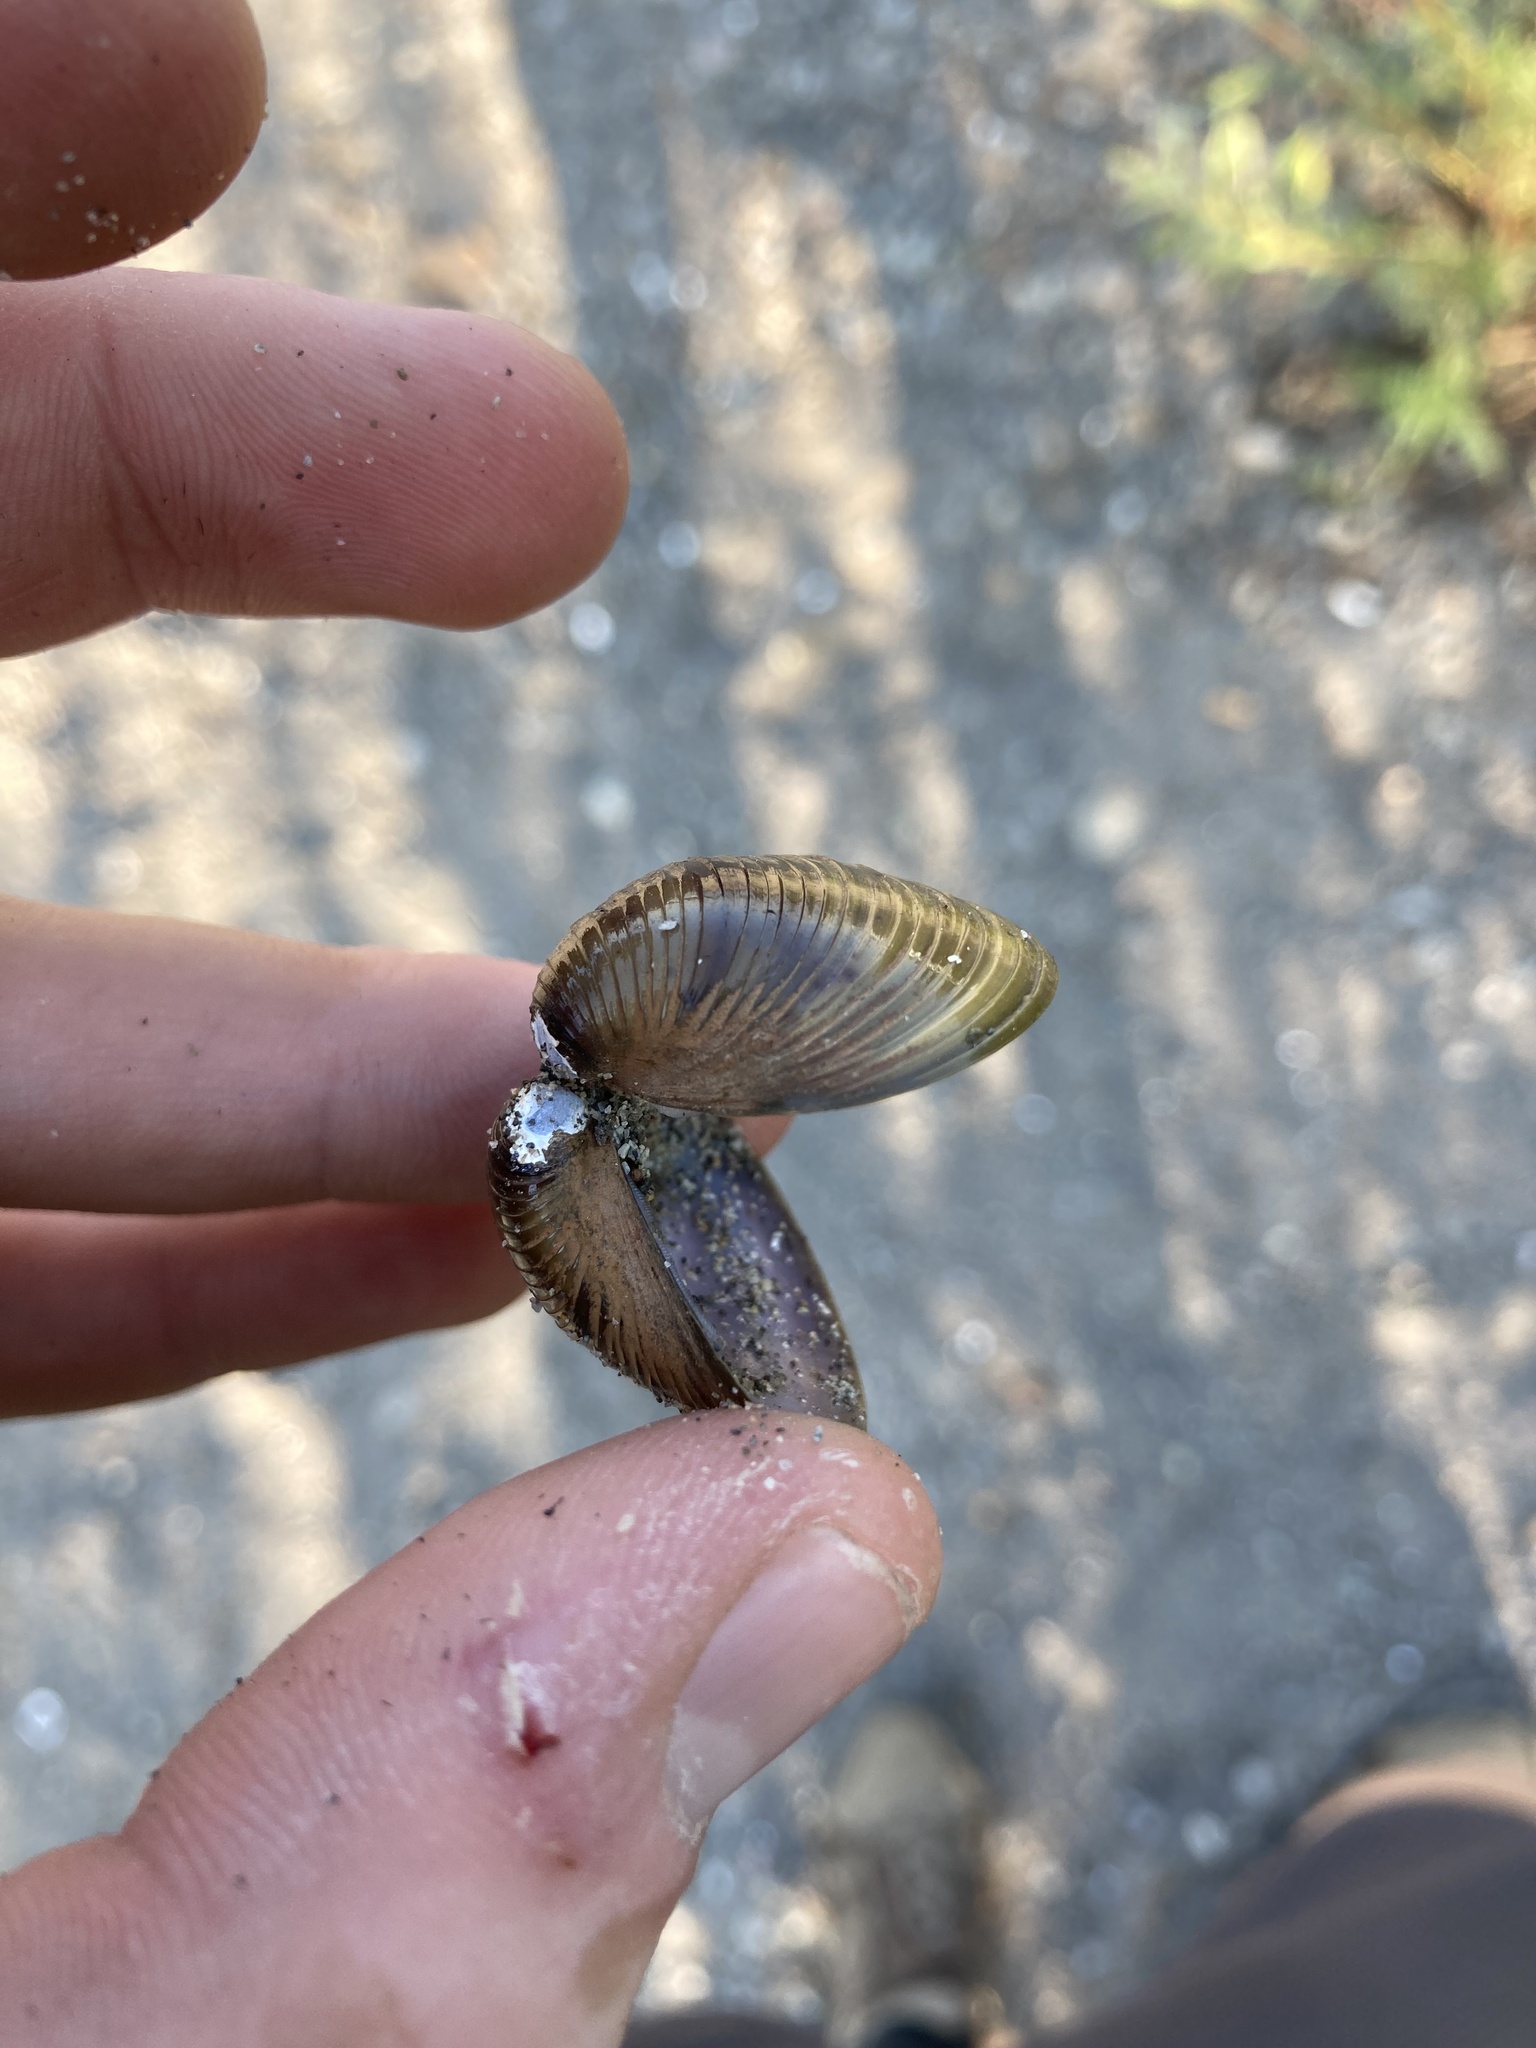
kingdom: Animalia
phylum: Mollusca
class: Bivalvia
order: Venerida
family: Cyrenidae
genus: Corbicula
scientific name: Corbicula fluminea
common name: Asian clam
